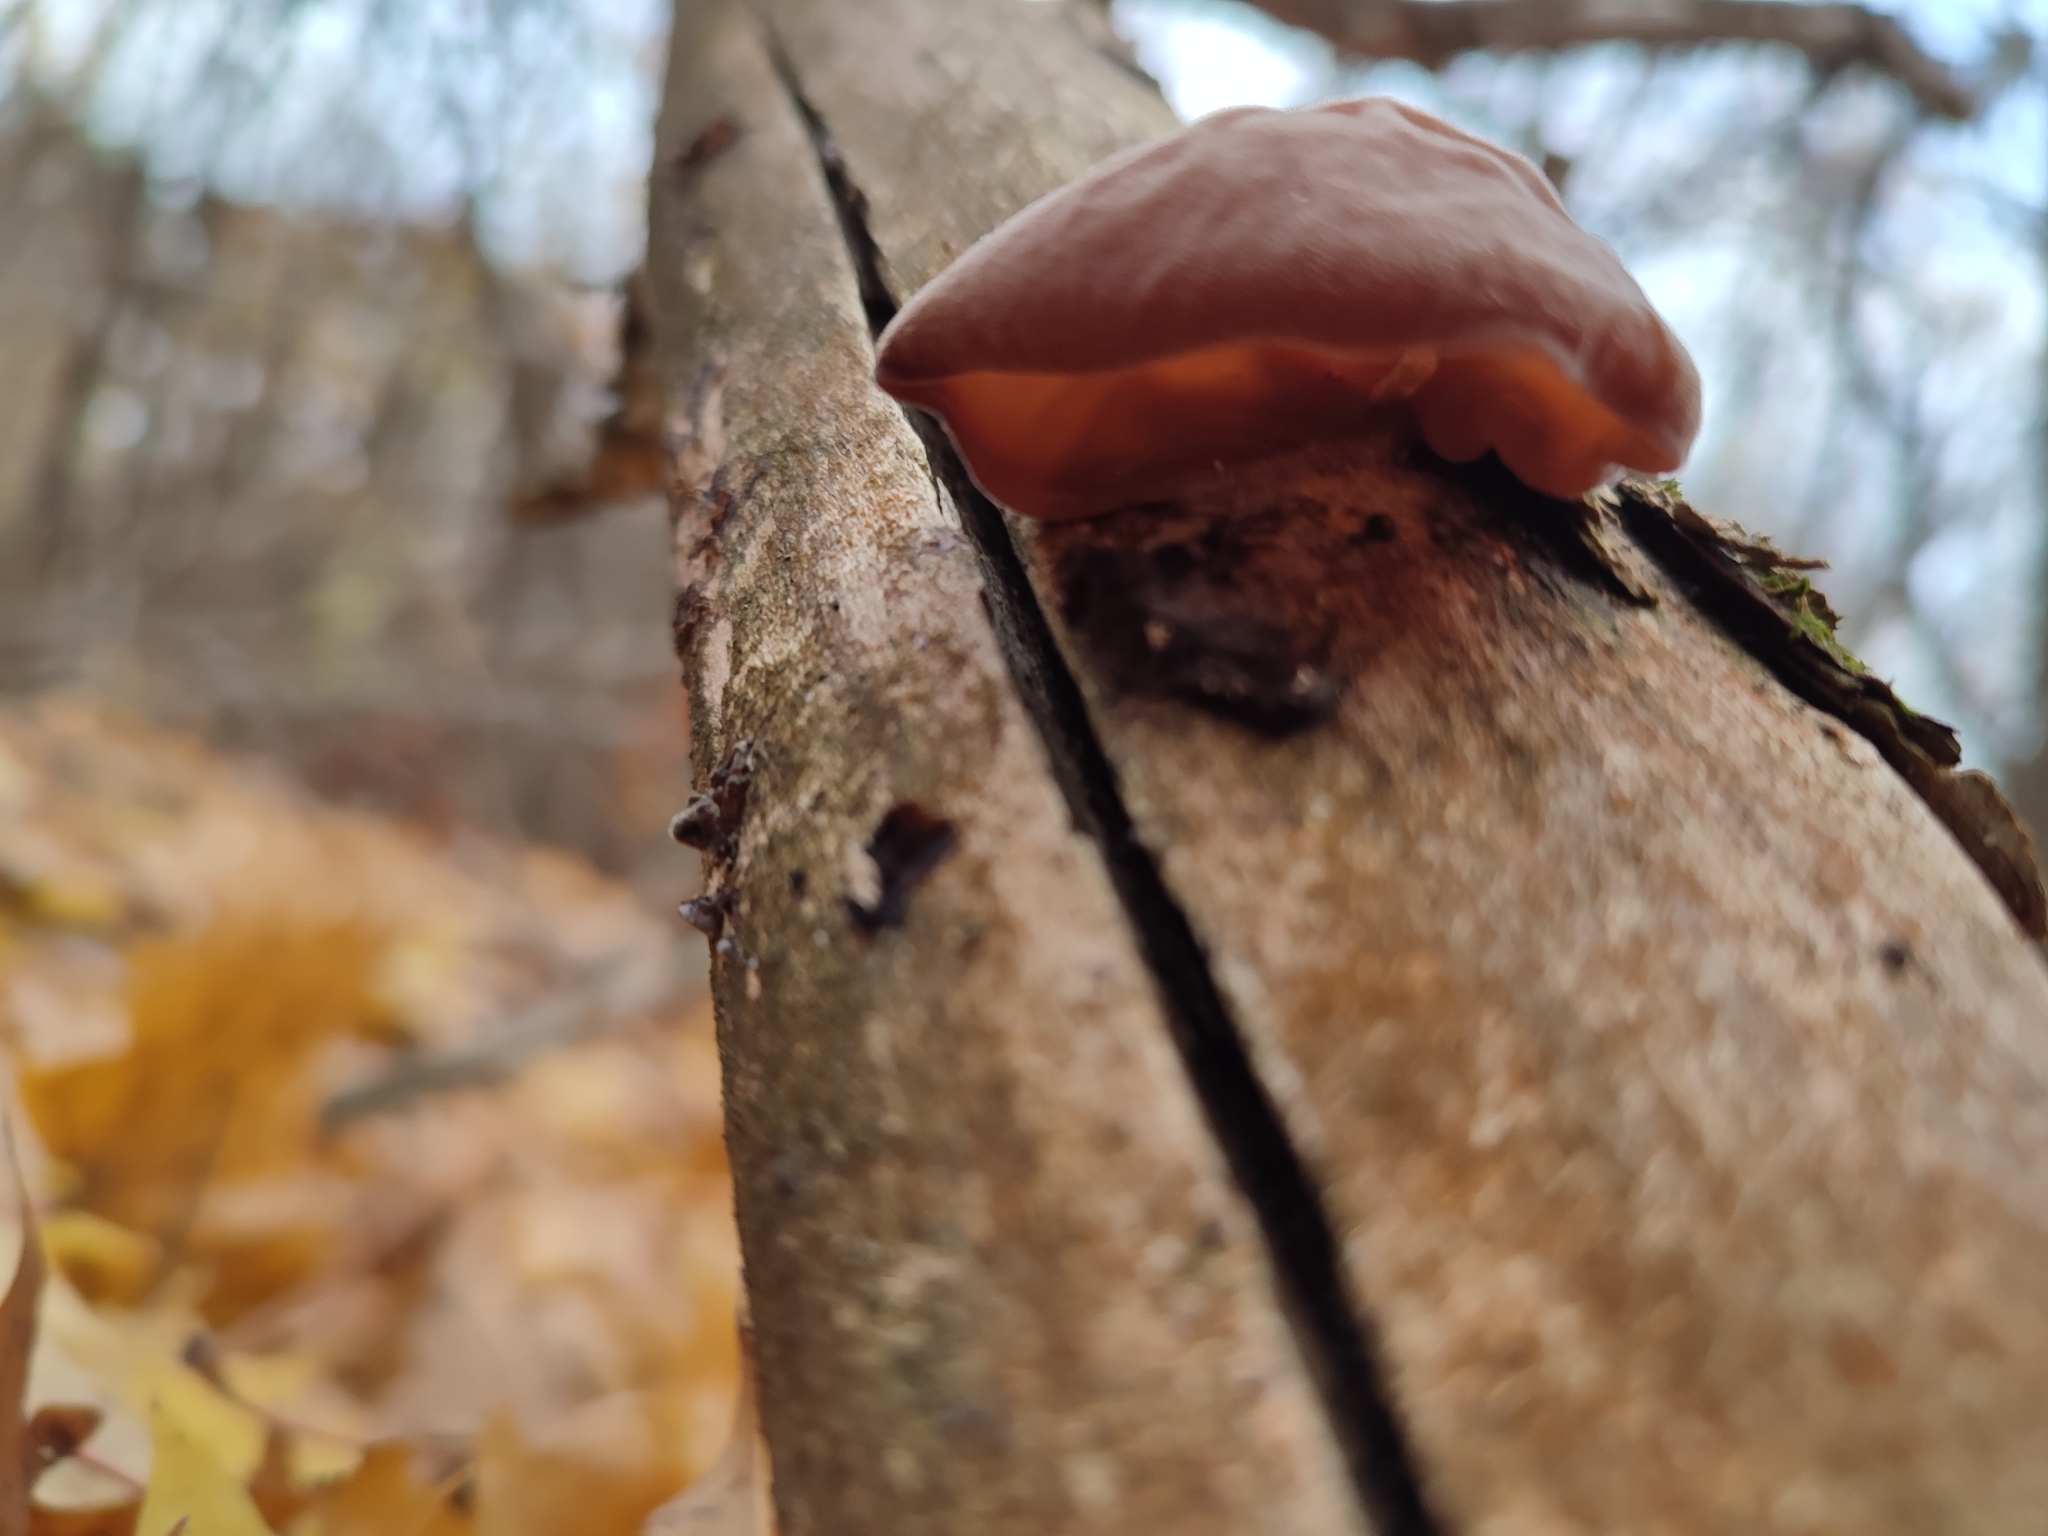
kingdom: Fungi
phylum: Basidiomycota
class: Agaricomycetes
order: Auriculariales
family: Auriculariaceae
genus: Auricularia
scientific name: Auricularia auricula-judae
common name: Jelly ear
